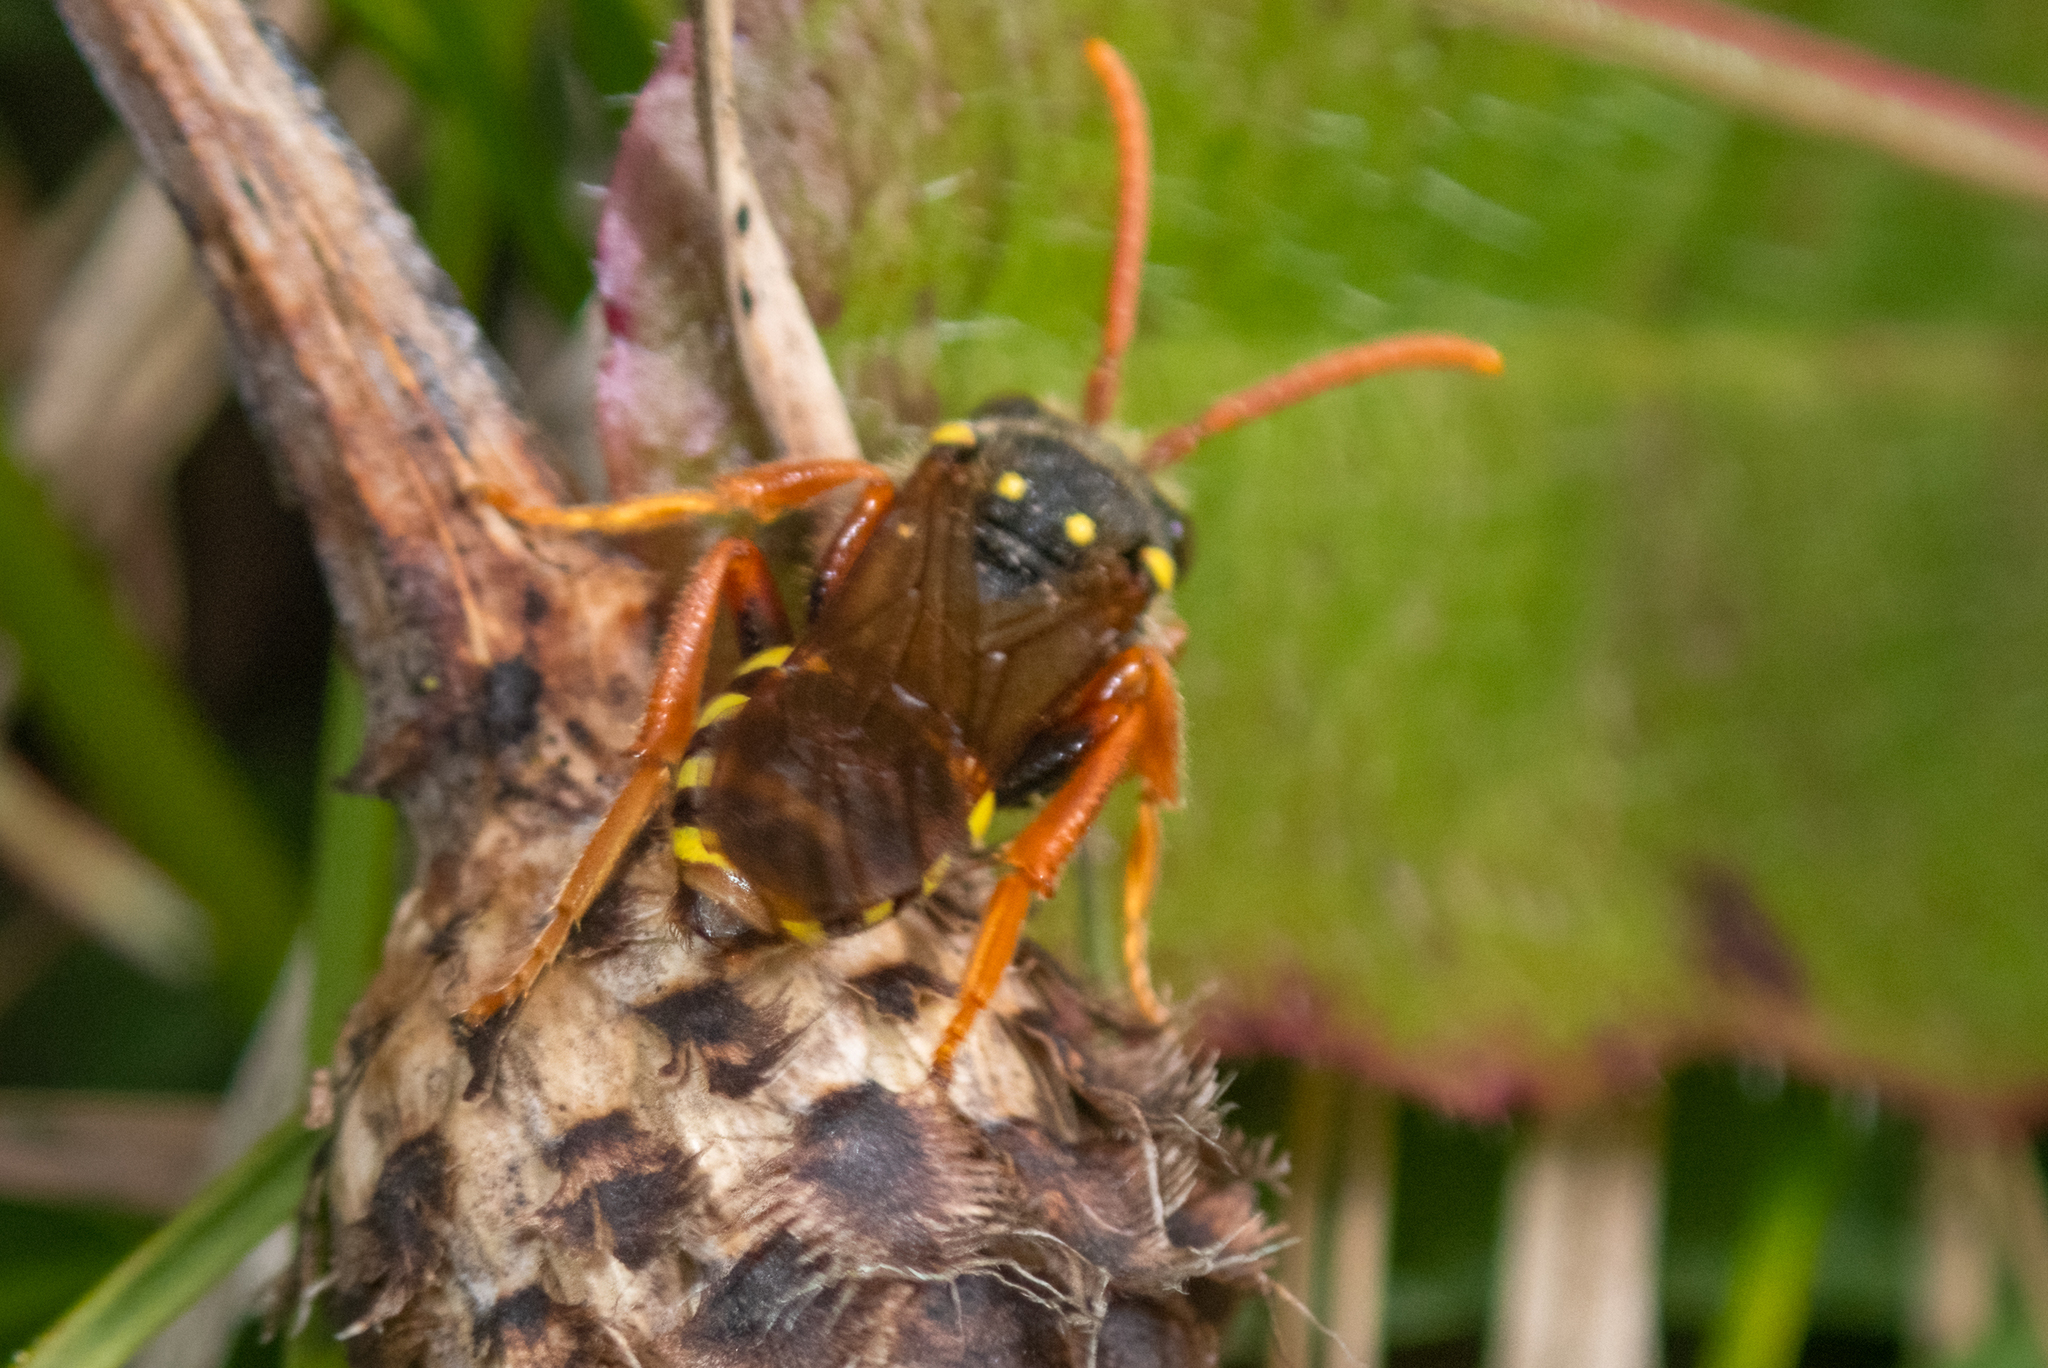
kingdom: Animalia
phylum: Arthropoda
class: Insecta
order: Hymenoptera
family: Apidae
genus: Nomada
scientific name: Nomada goodeniana
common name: Gooden's nomad bee
